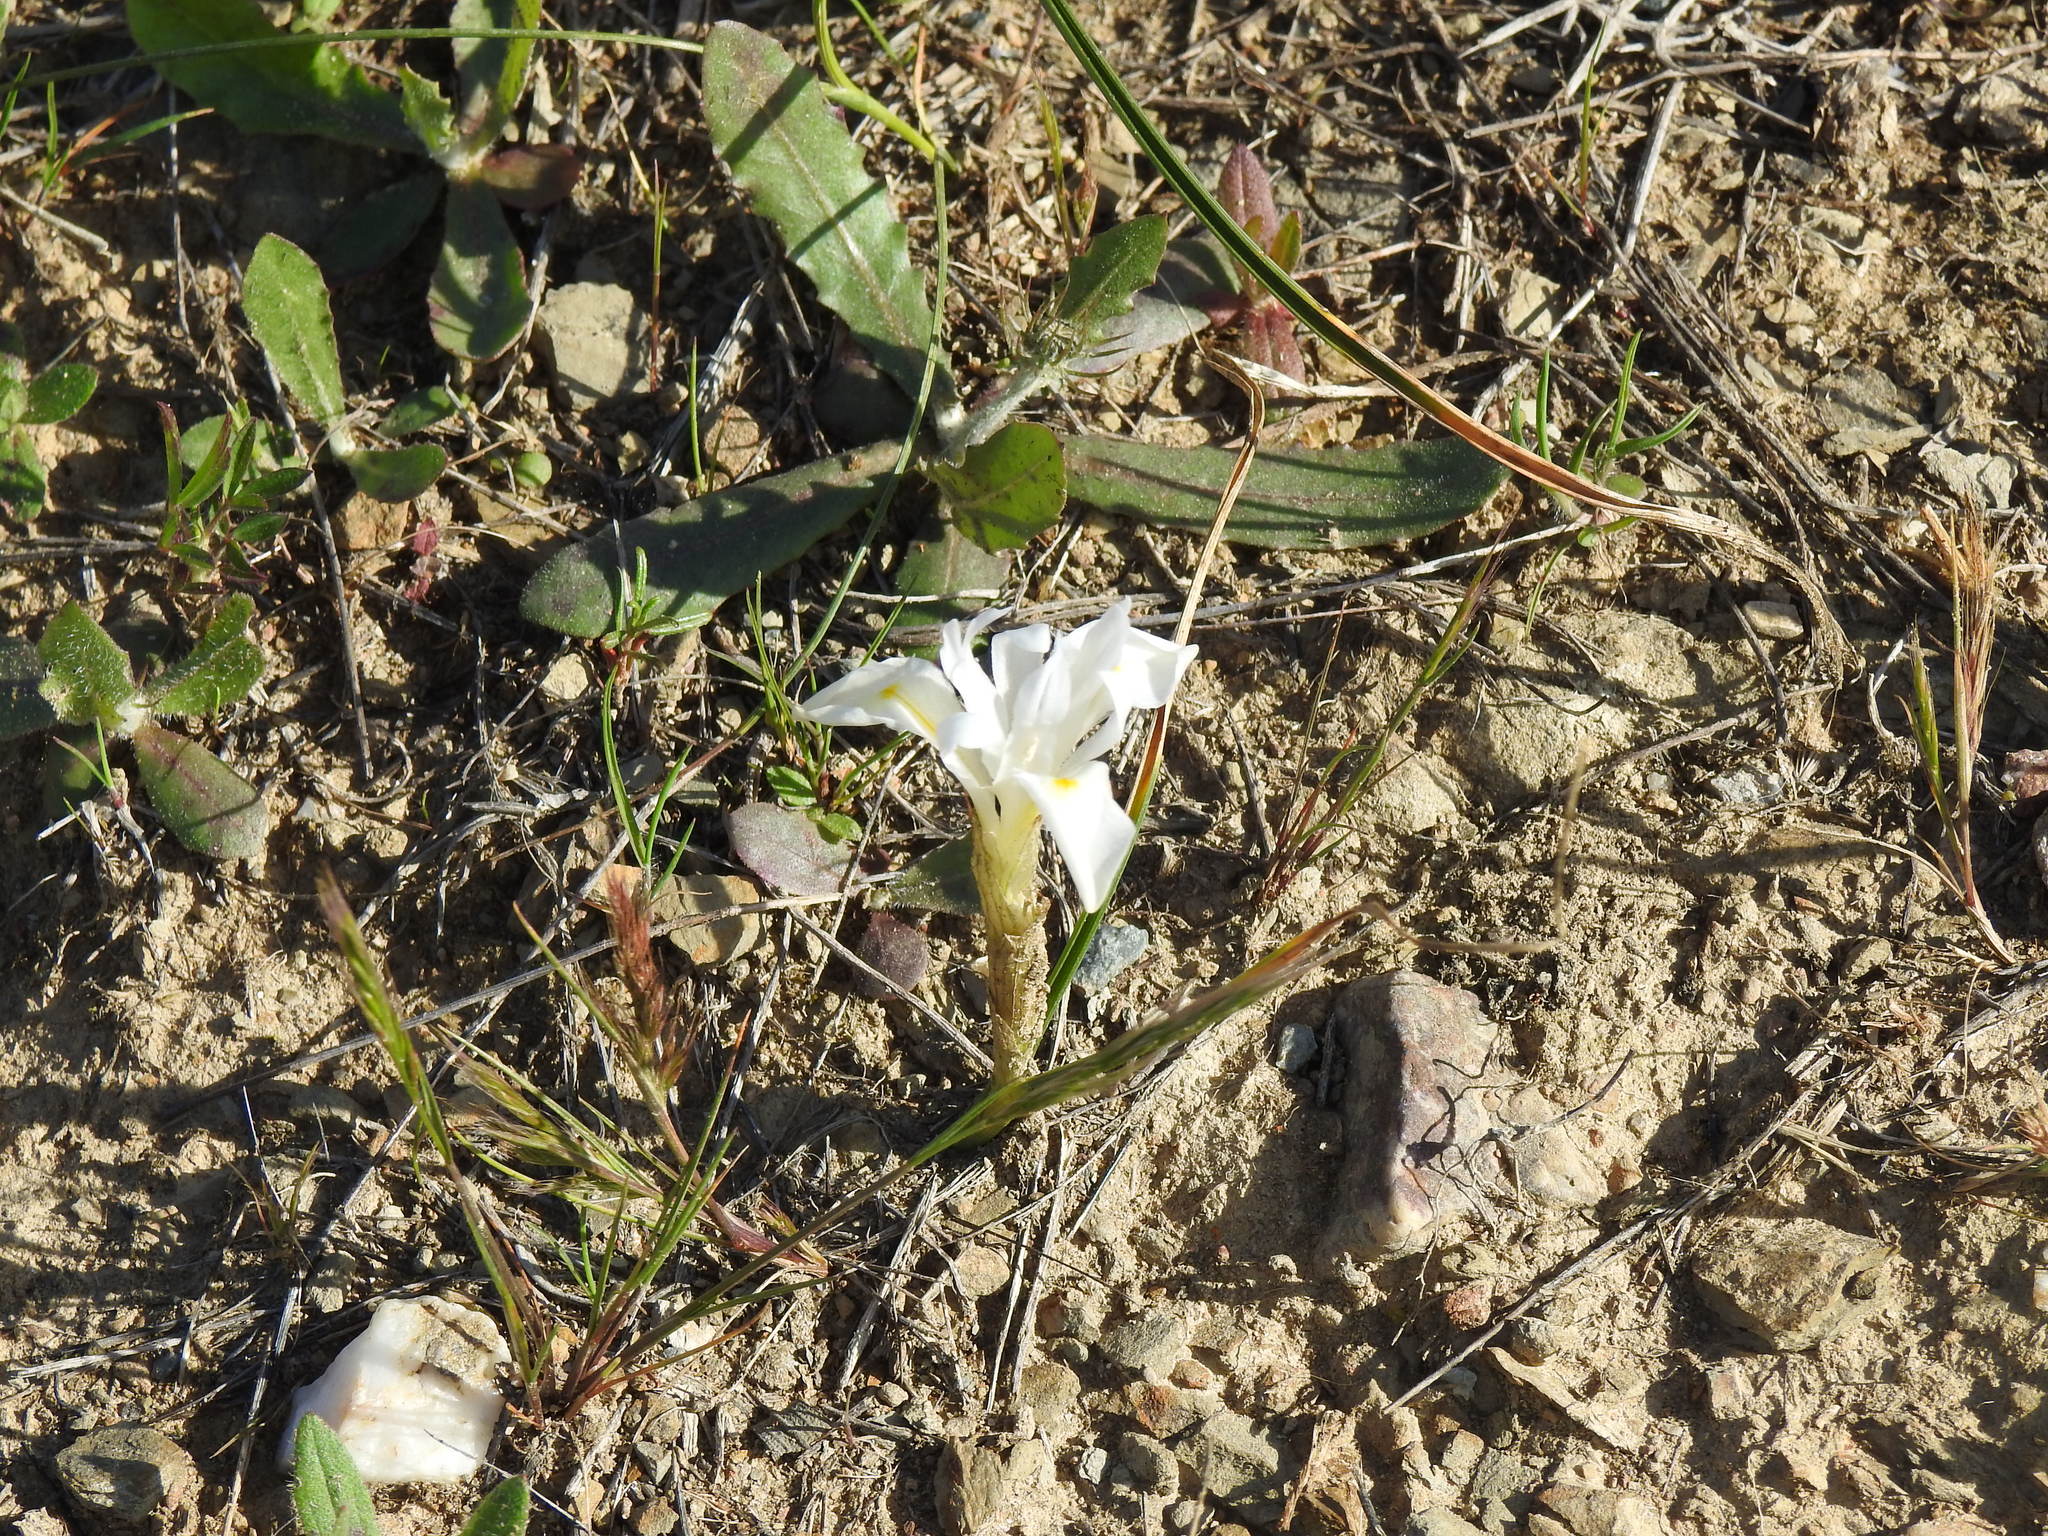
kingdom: Plantae
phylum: Tracheophyta
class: Liliopsida
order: Asparagales
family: Iridaceae
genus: Moraea
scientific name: Moraea sisyrinchium
